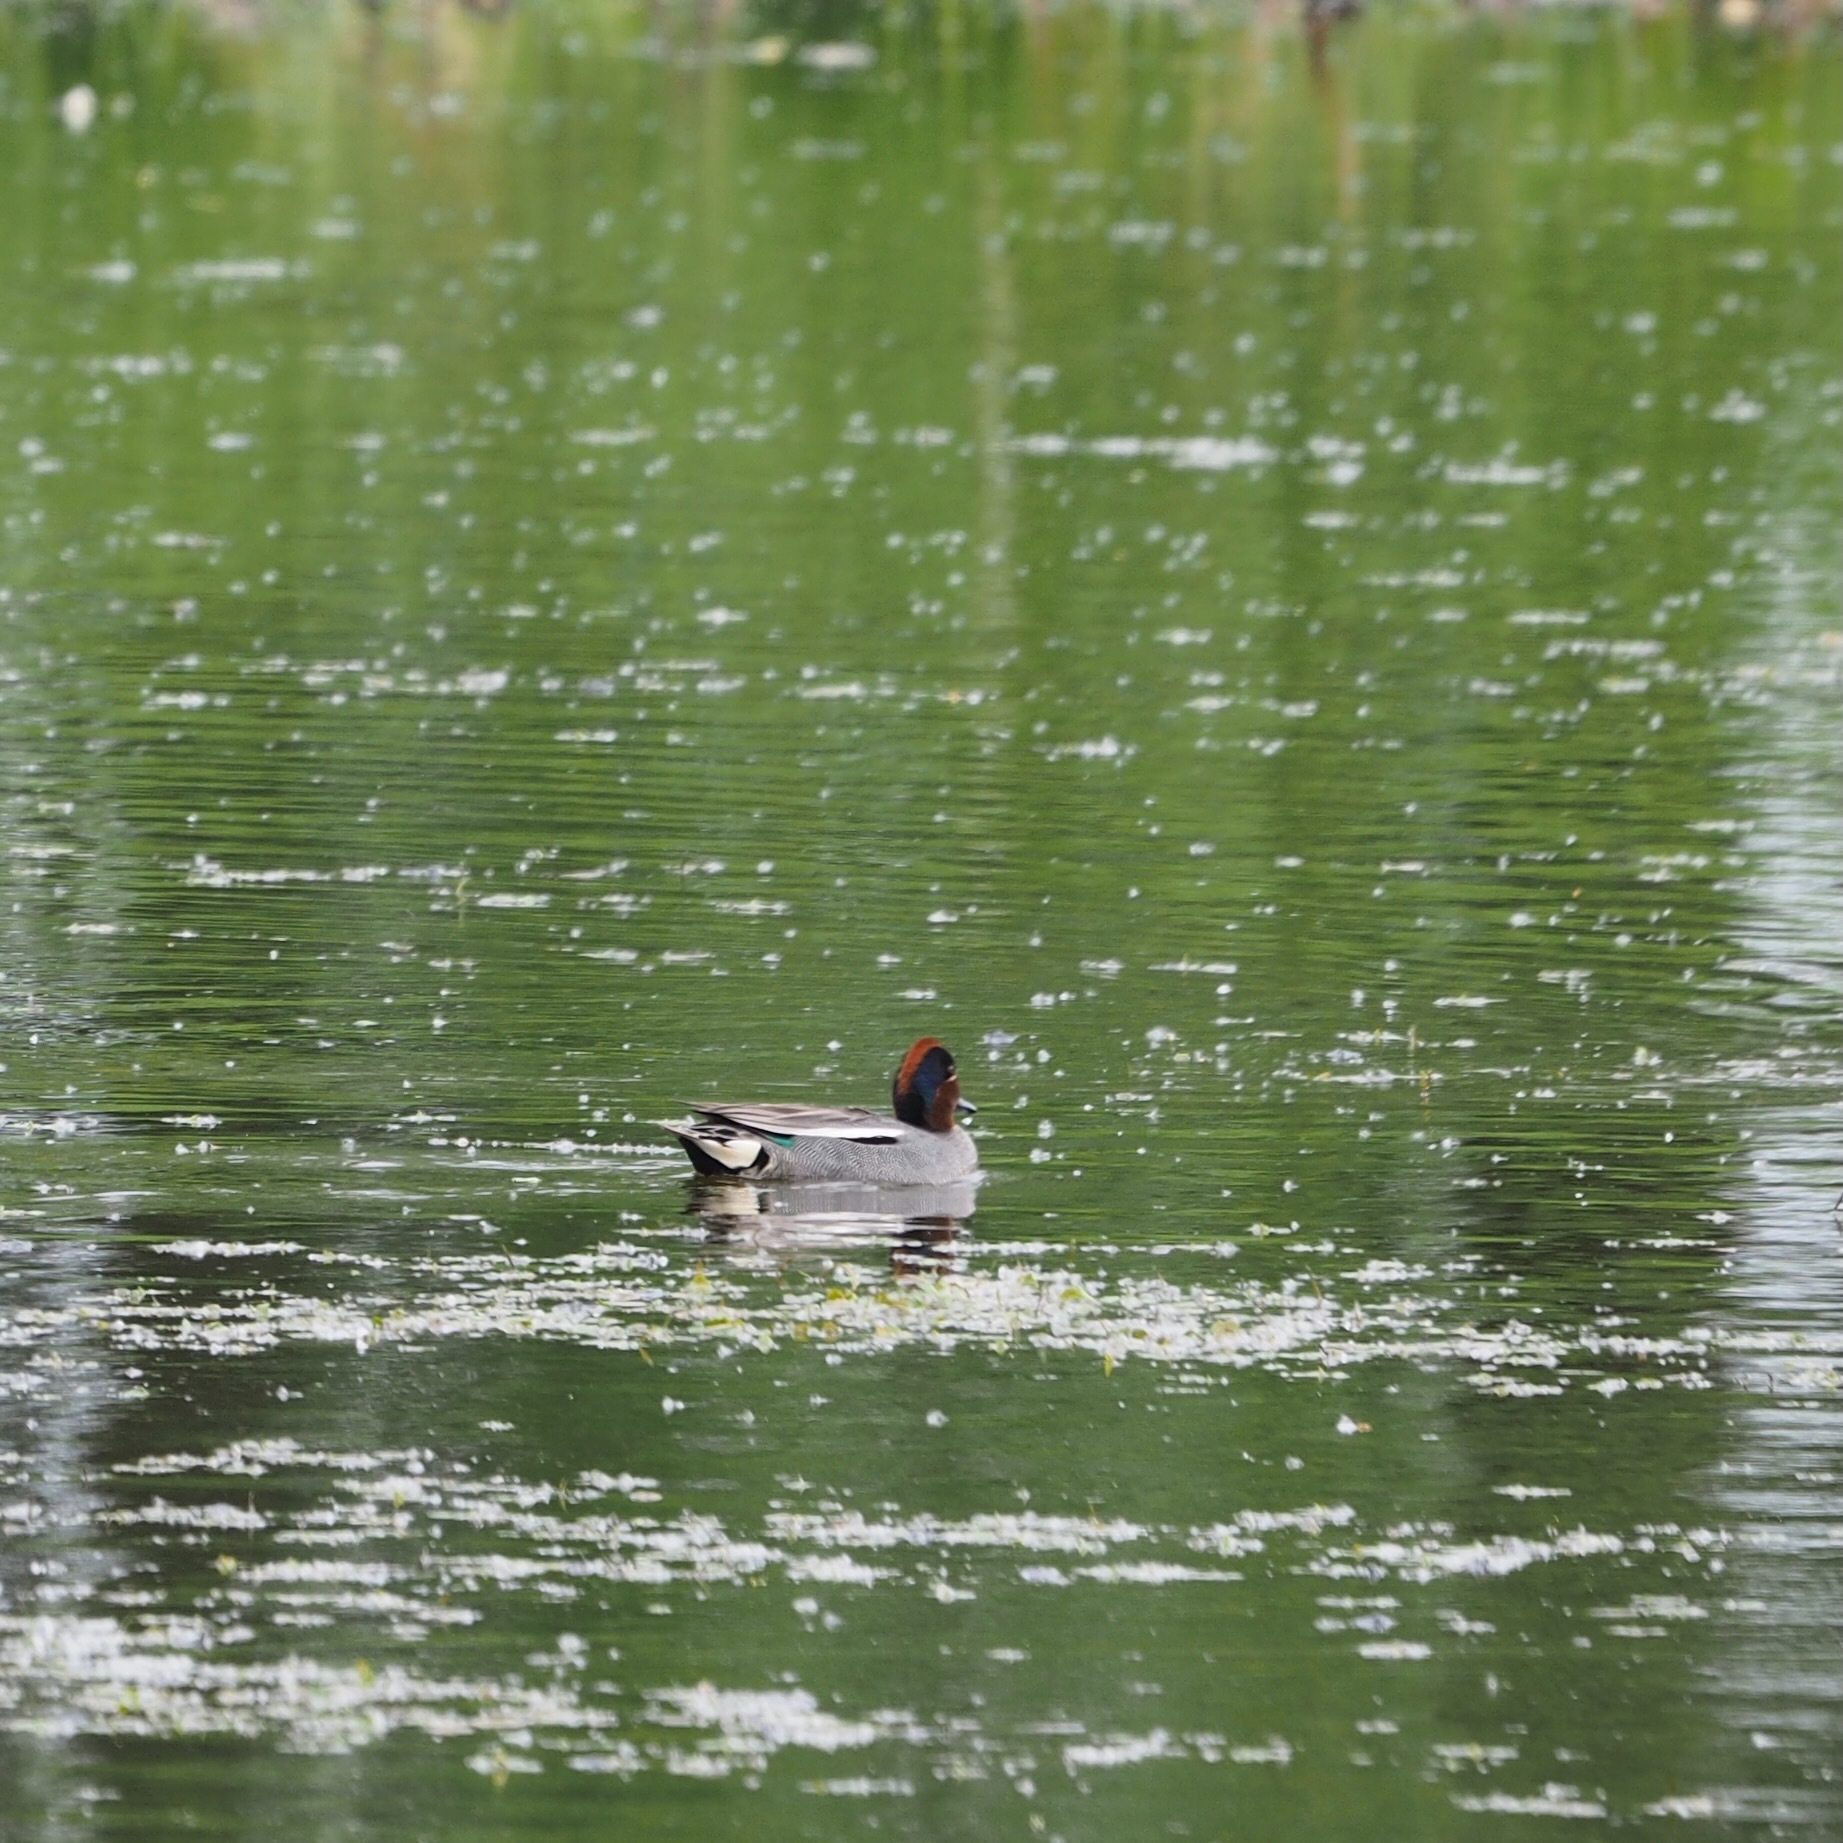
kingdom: Animalia
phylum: Chordata
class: Aves
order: Anseriformes
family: Anatidae
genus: Anas
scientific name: Anas crecca
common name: Eurasian teal
